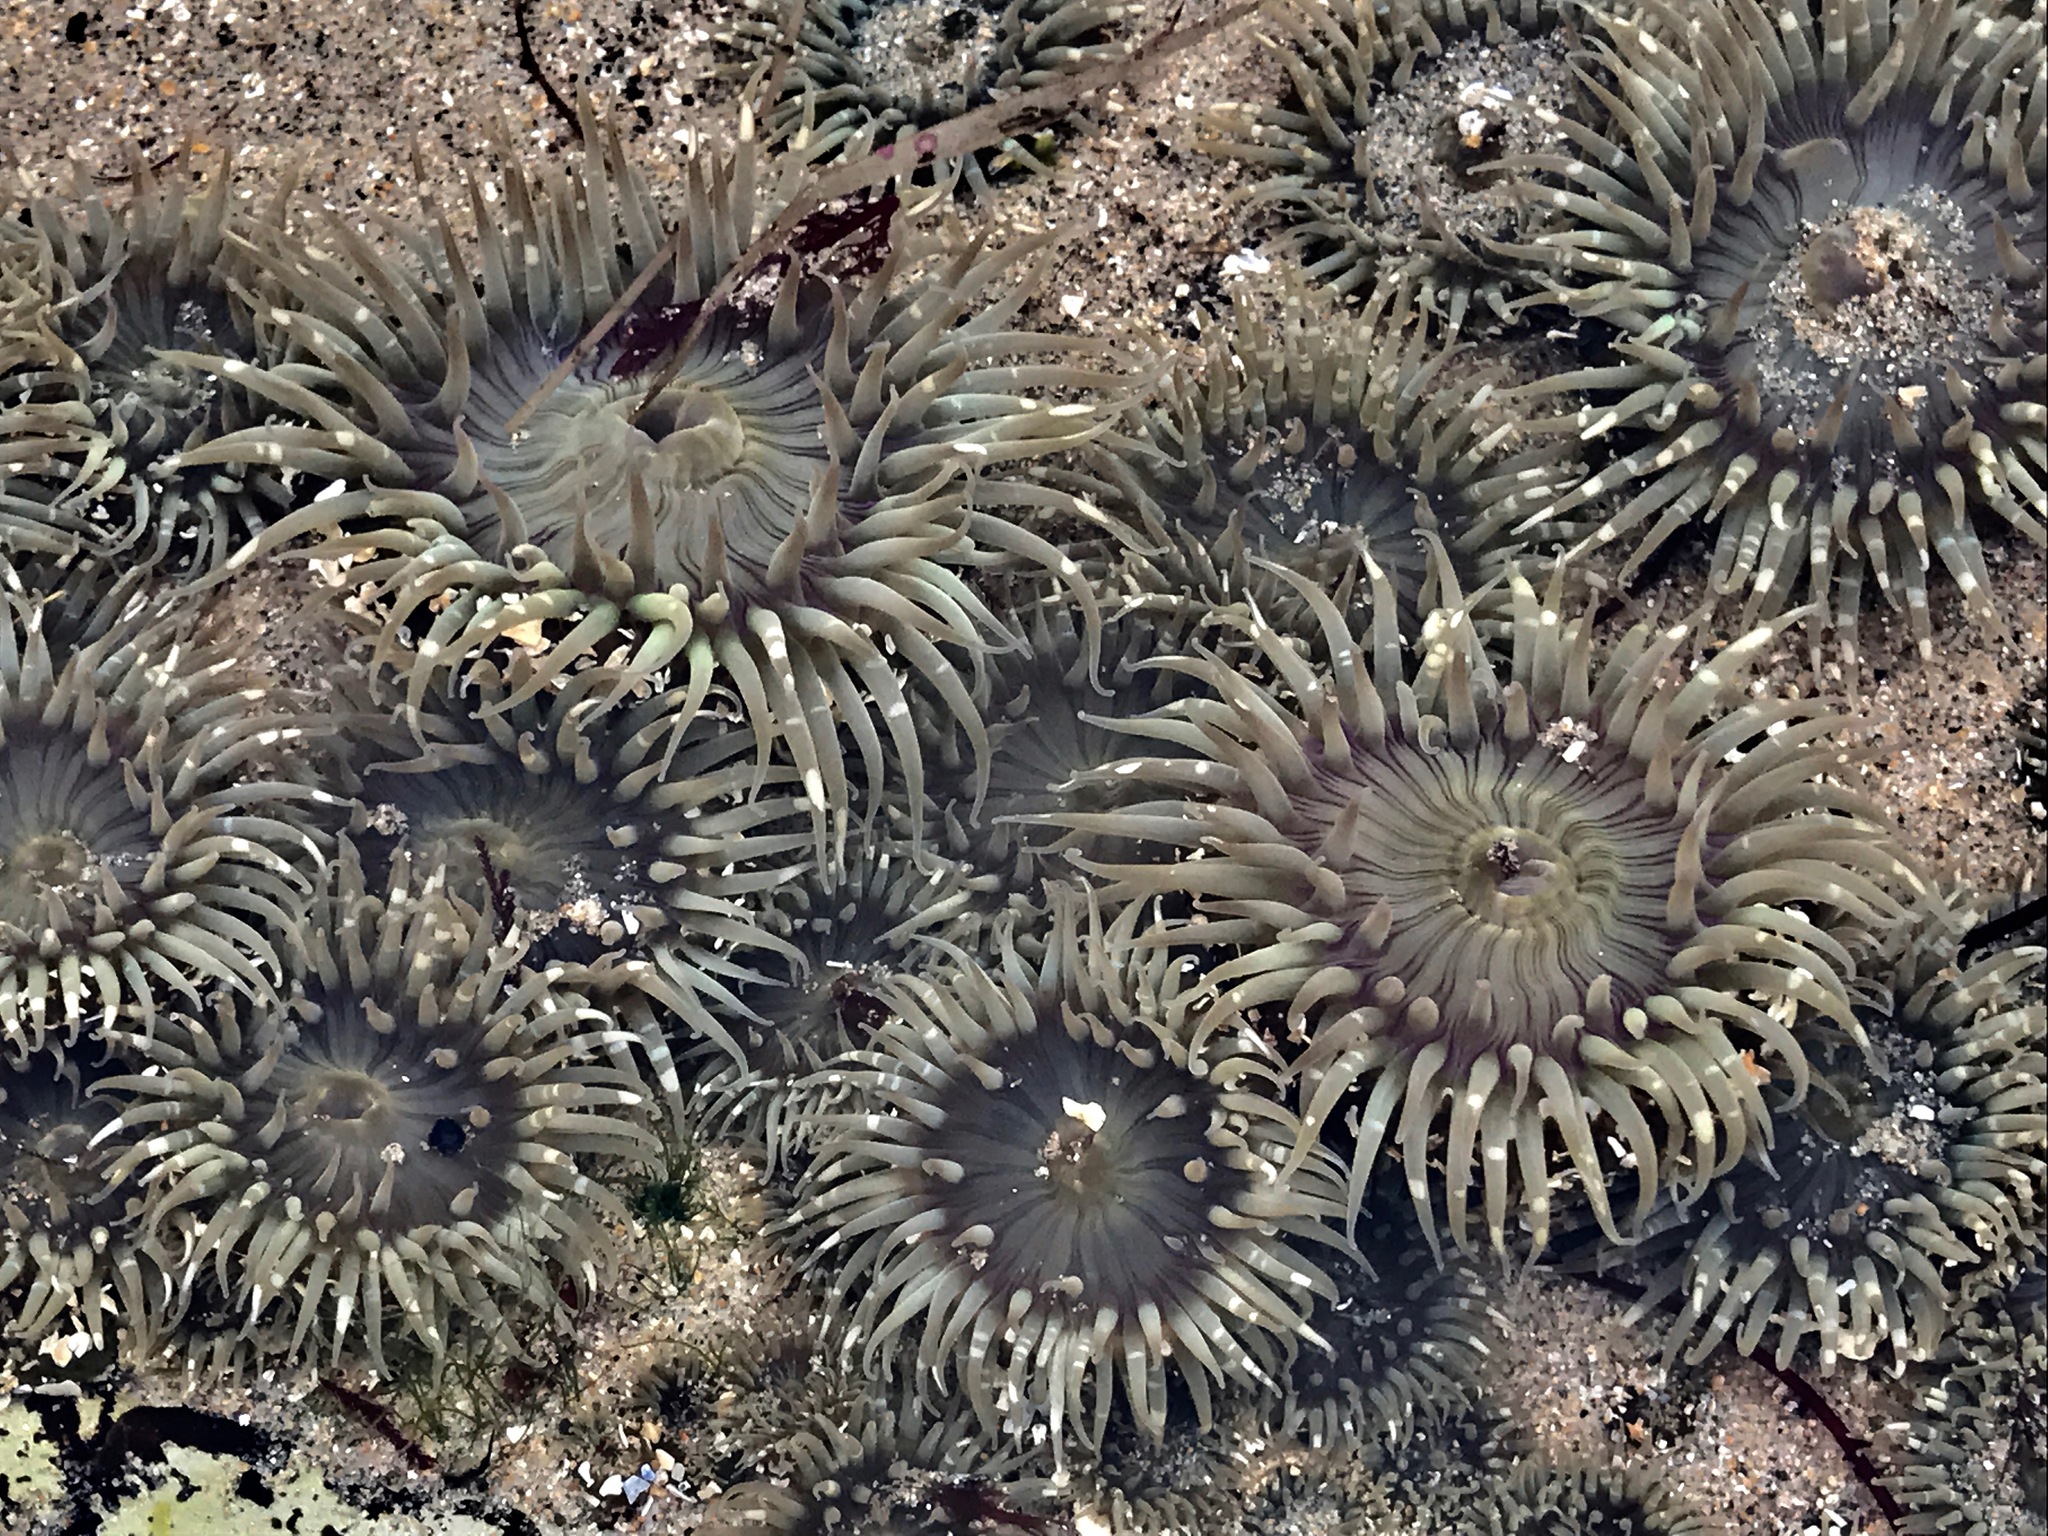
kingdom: Animalia
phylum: Cnidaria
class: Anthozoa
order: Actiniaria
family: Actiniidae
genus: Anthopleura
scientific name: Anthopleura elegantissima
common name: Clonal anemone
